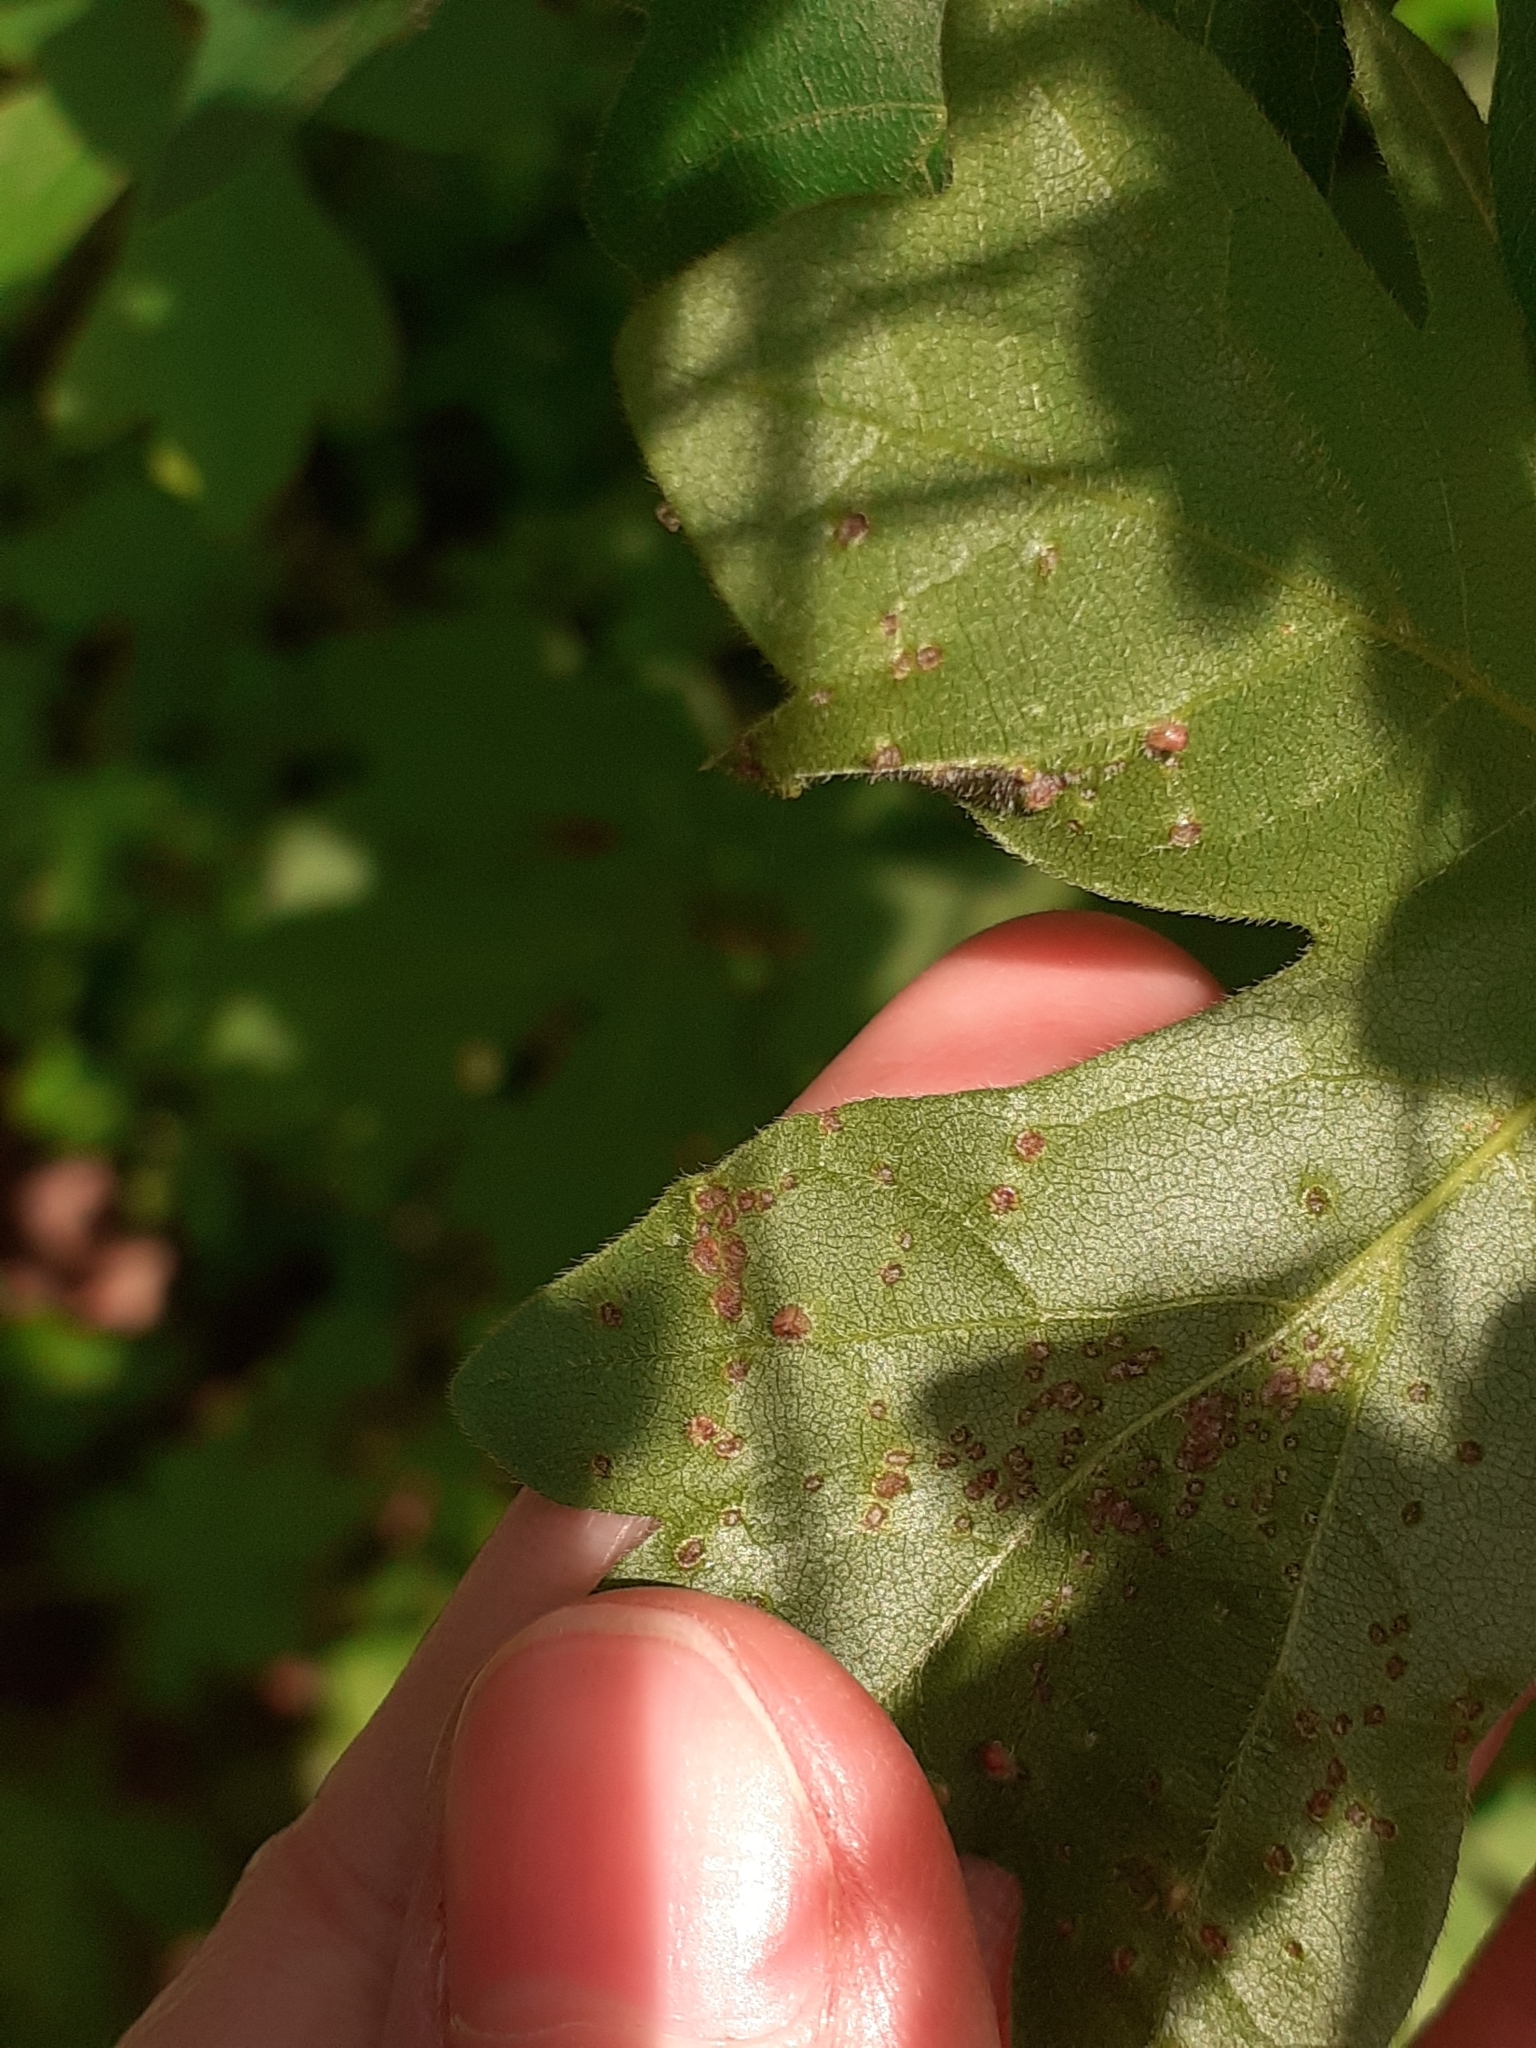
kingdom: Animalia
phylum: Arthropoda
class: Arachnida
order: Trombidiformes
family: Eriophyidae
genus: Aceria
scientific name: Aceria myriadeum
